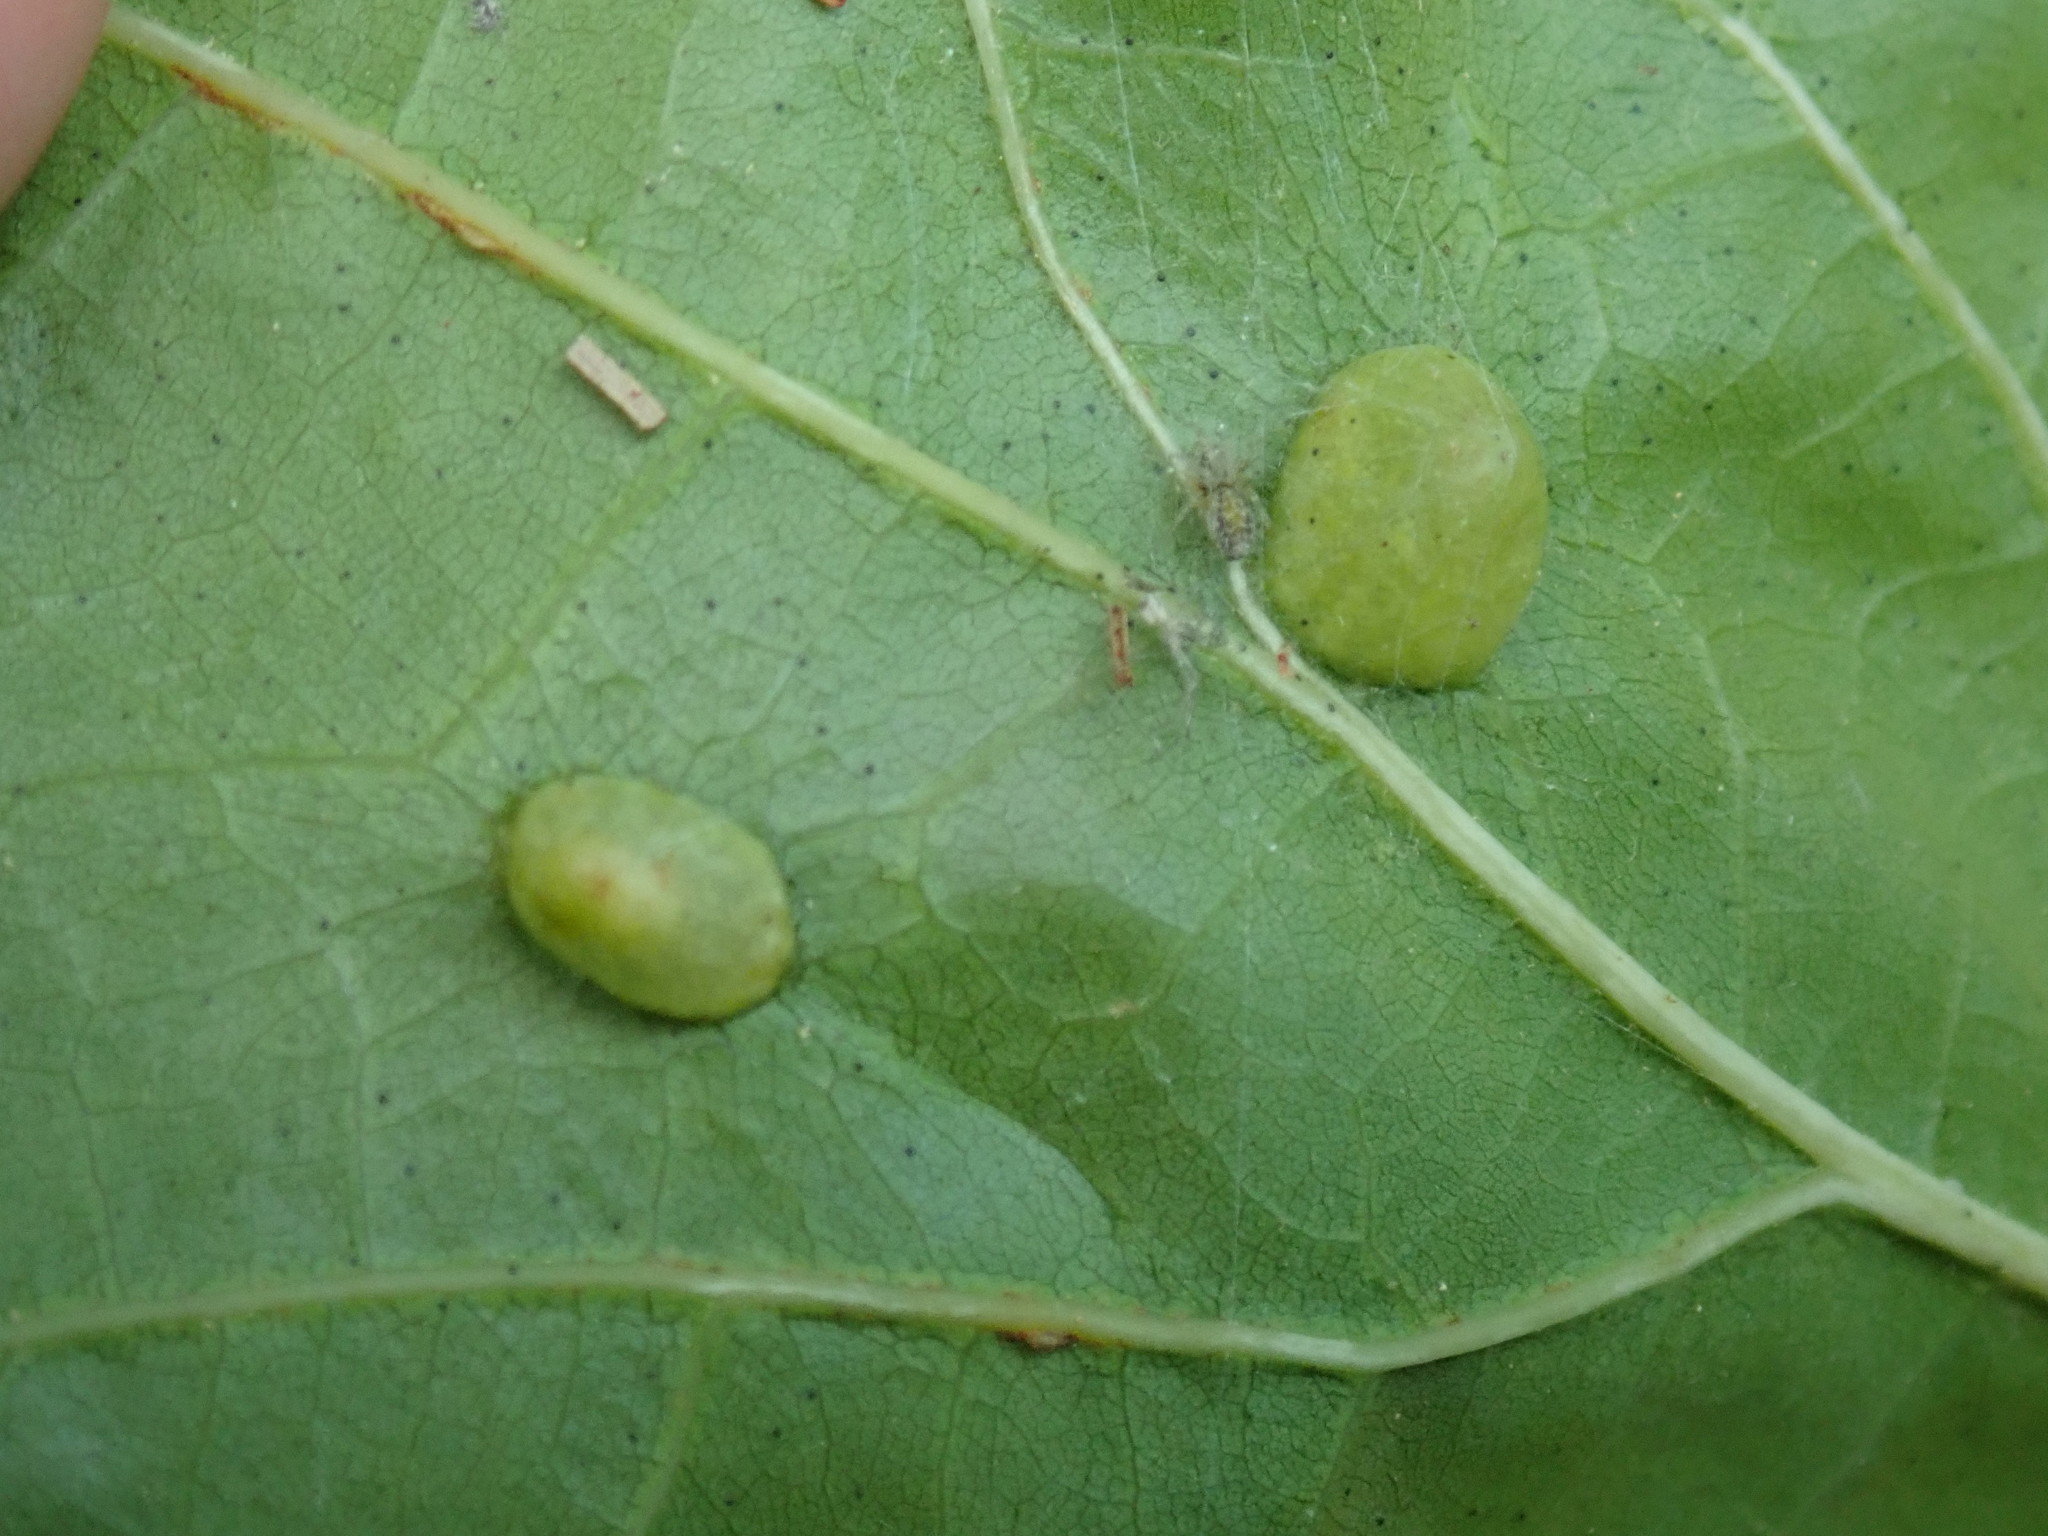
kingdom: Animalia
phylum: Arthropoda
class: Insecta
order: Hymenoptera
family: Cynipidae
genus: Dryocosmus
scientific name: Dryocosmus
